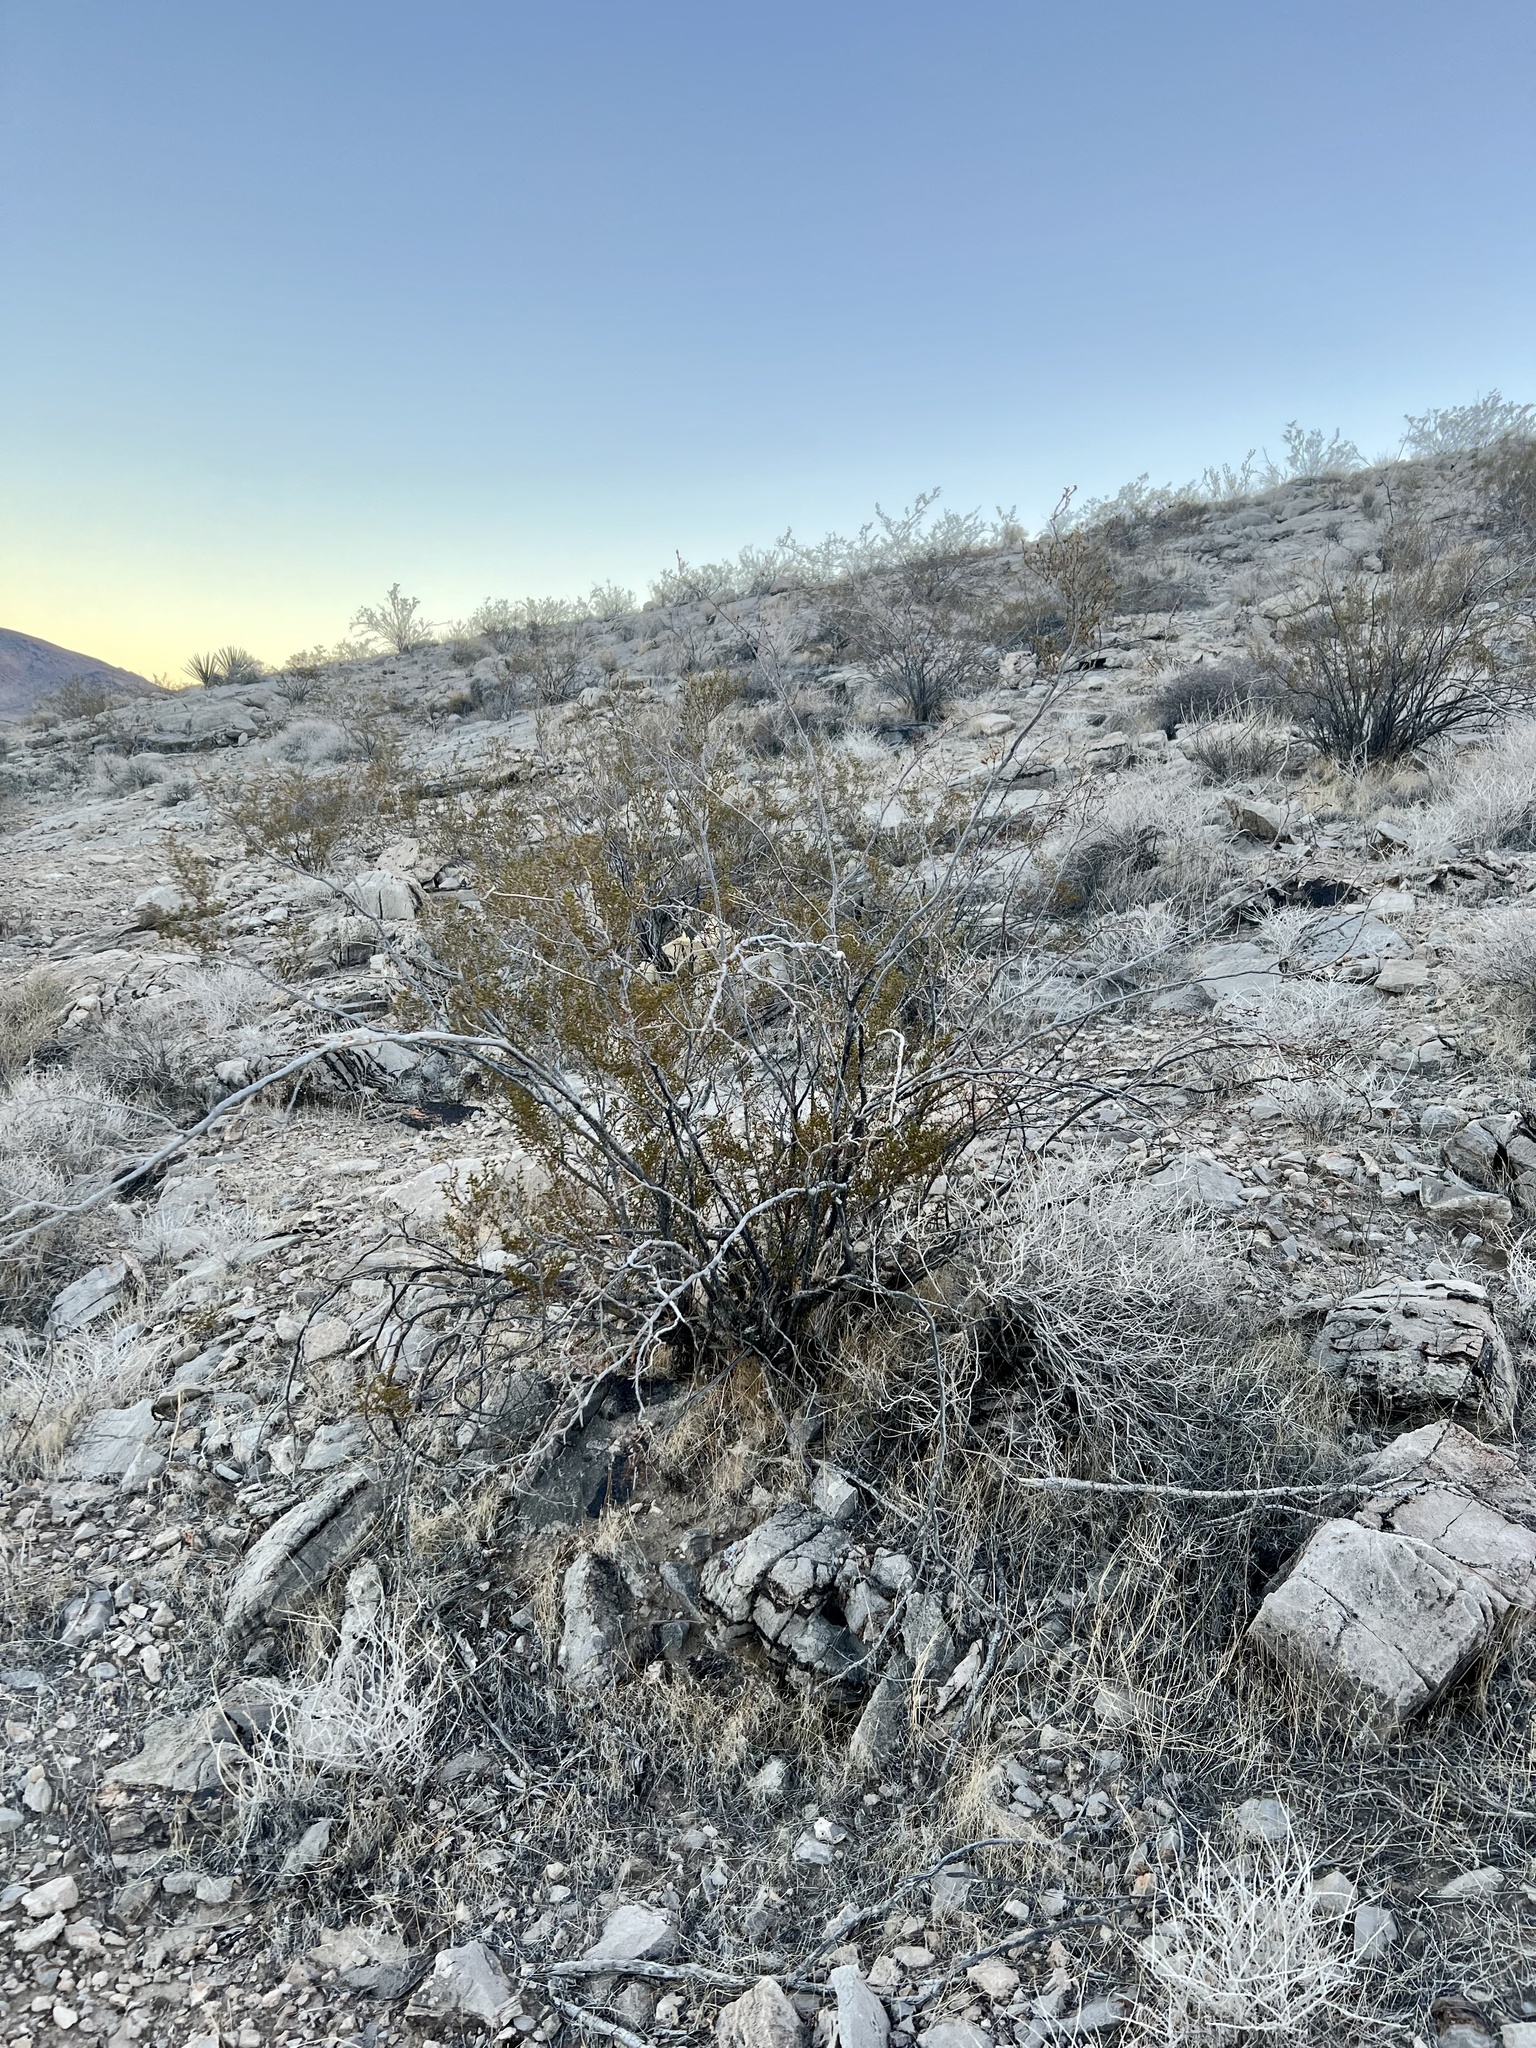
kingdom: Plantae
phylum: Tracheophyta
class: Magnoliopsida
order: Zygophyllales
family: Zygophyllaceae
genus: Larrea
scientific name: Larrea tridentata
